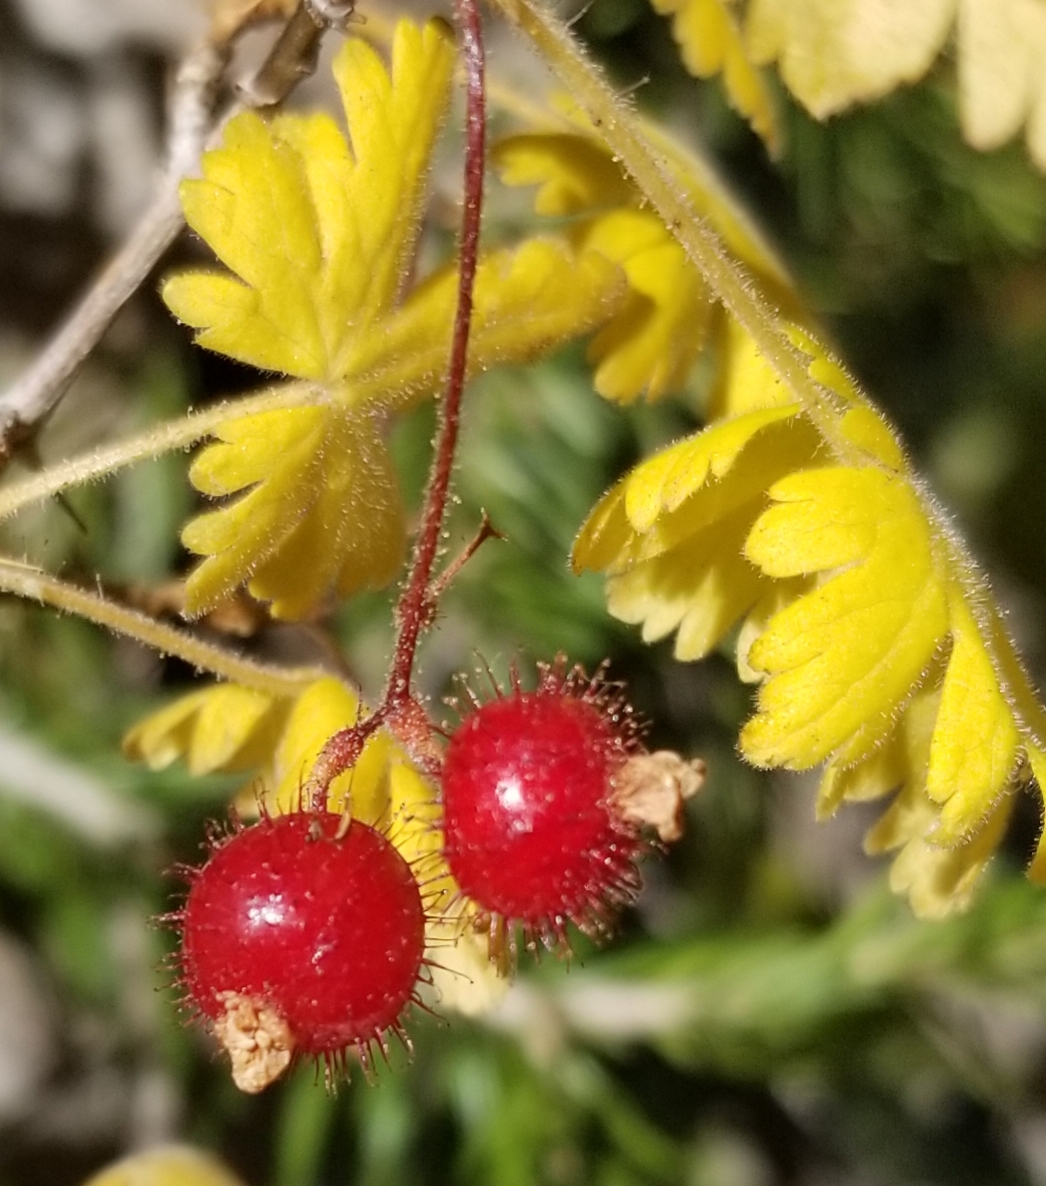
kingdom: Plantae
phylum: Tracheophyta
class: Magnoliopsida
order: Saxifragales
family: Grossulariaceae
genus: Ribes
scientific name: Ribes montigenum
